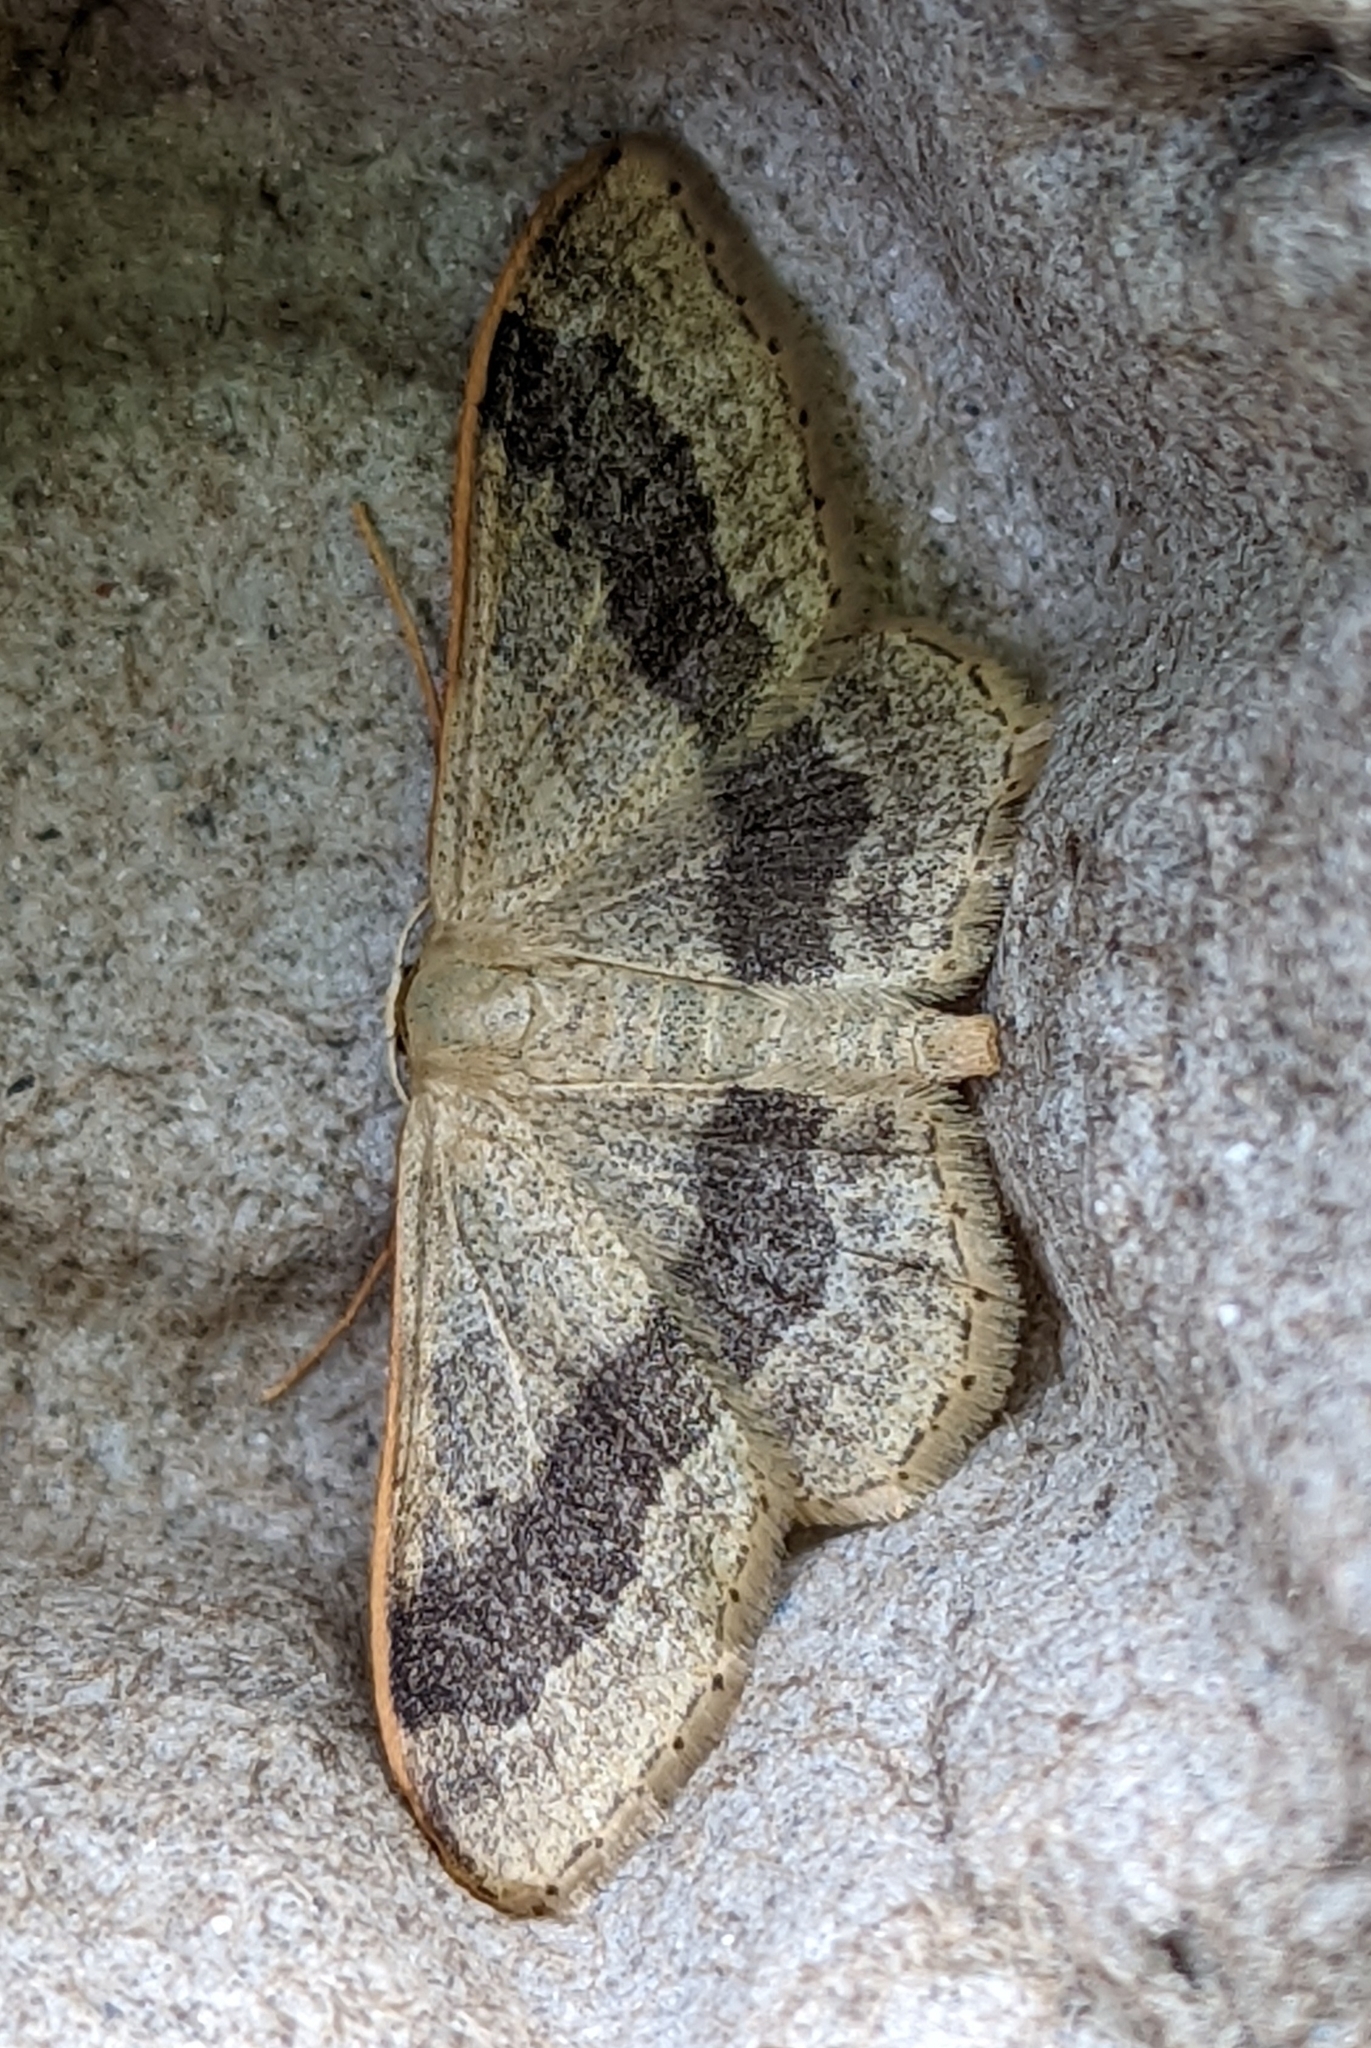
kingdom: Animalia
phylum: Arthropoda
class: Insecta
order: Lepidoptera
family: Geometridae
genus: Idaea
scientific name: Idaea aversata
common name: Riband wave
